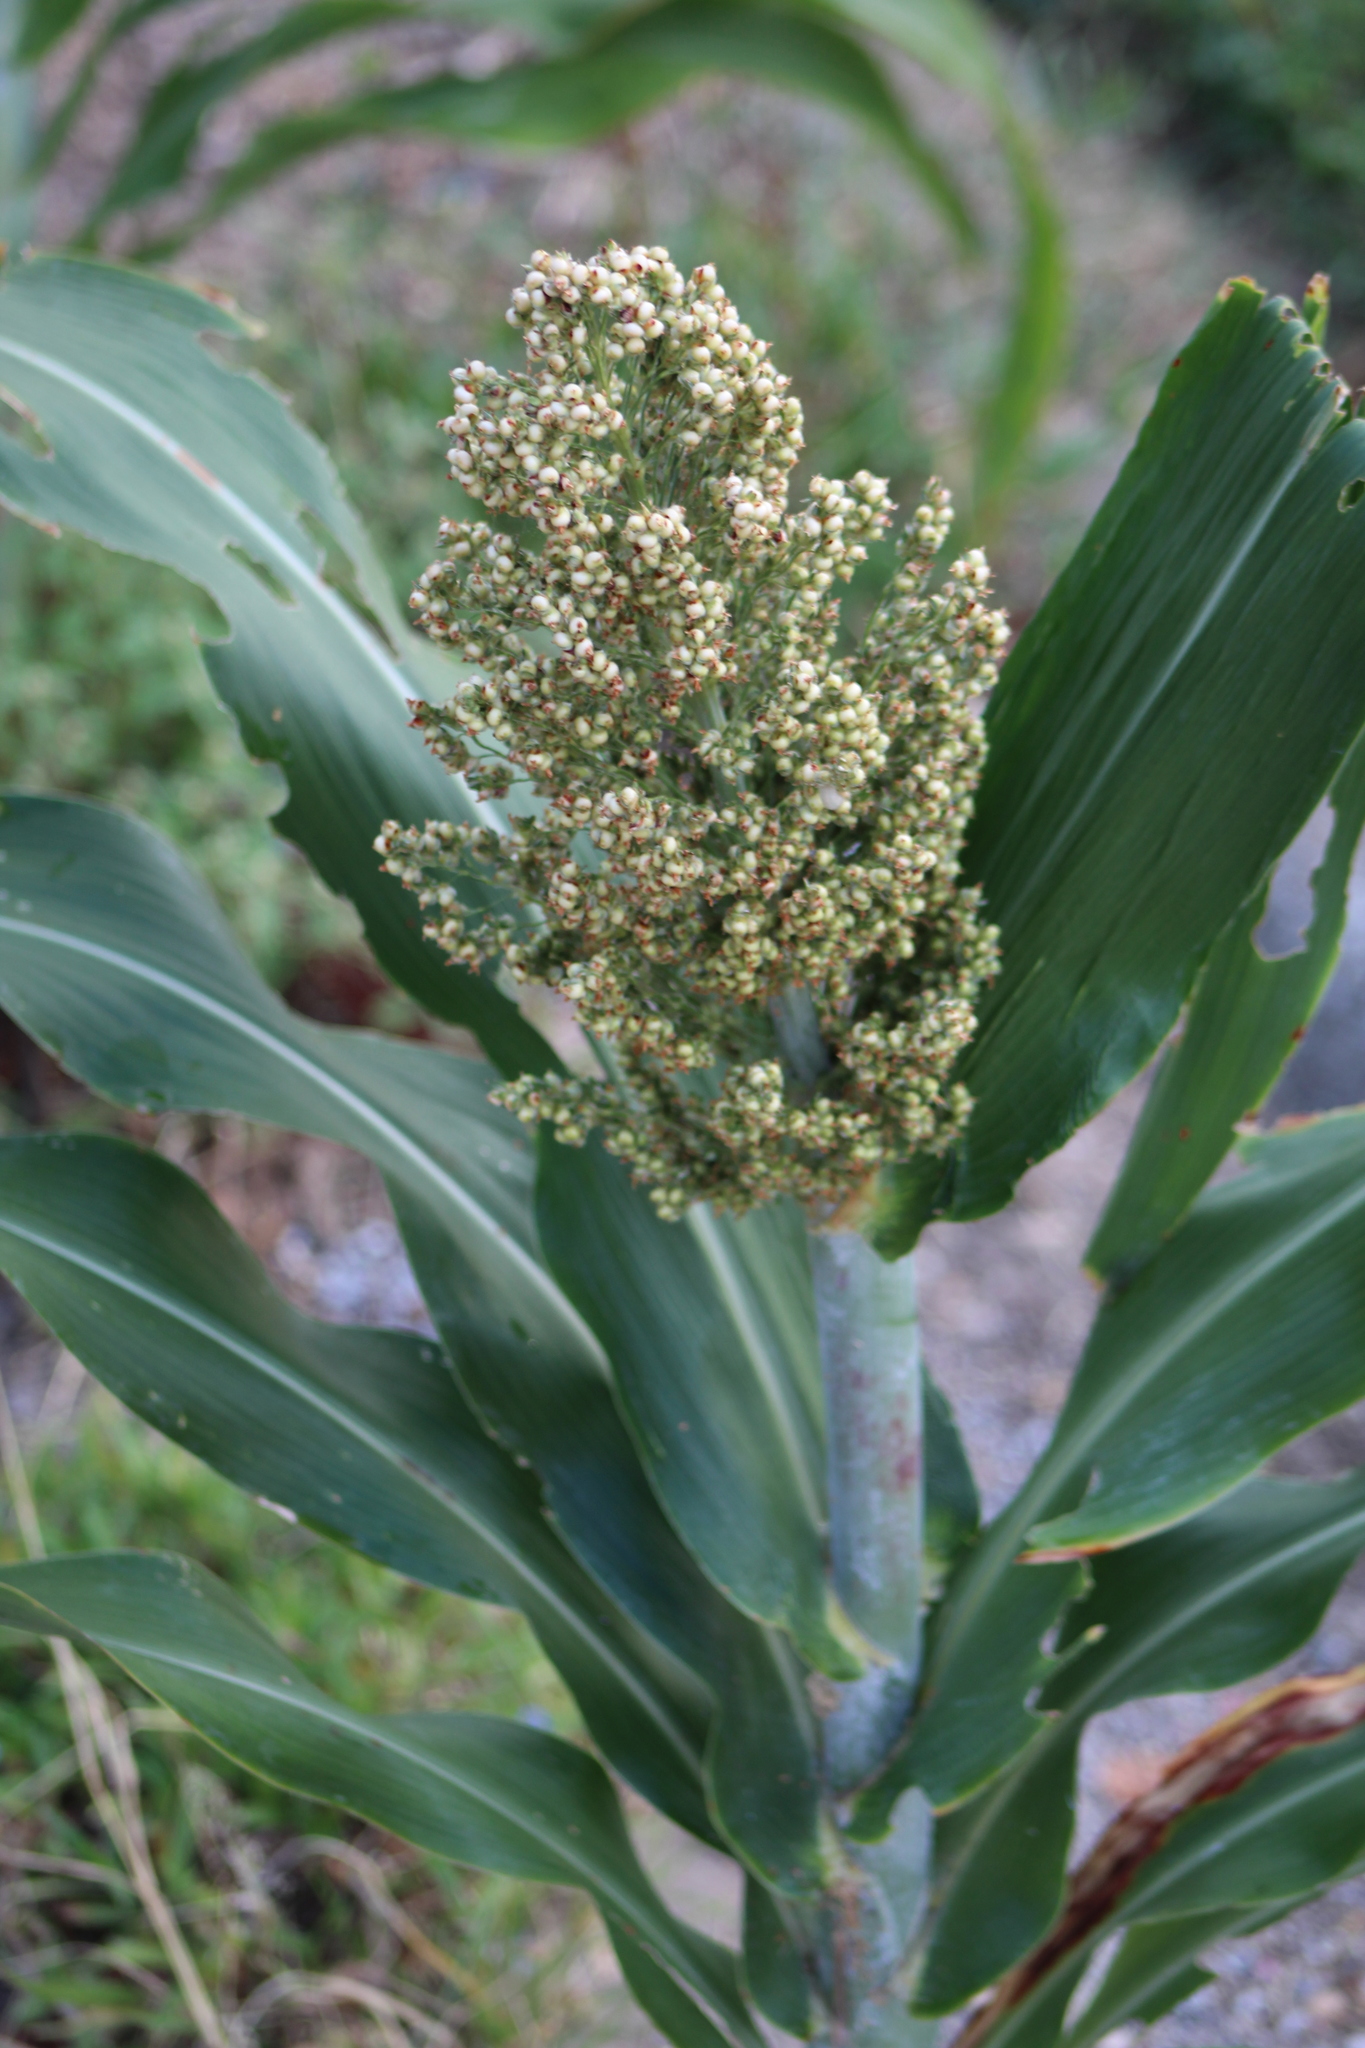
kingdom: Plantae
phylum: Tracheophyta
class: Liliopsida
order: Poales
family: Poaceae
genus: Sorghum
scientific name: Sorghum bicolor
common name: Sorghum
